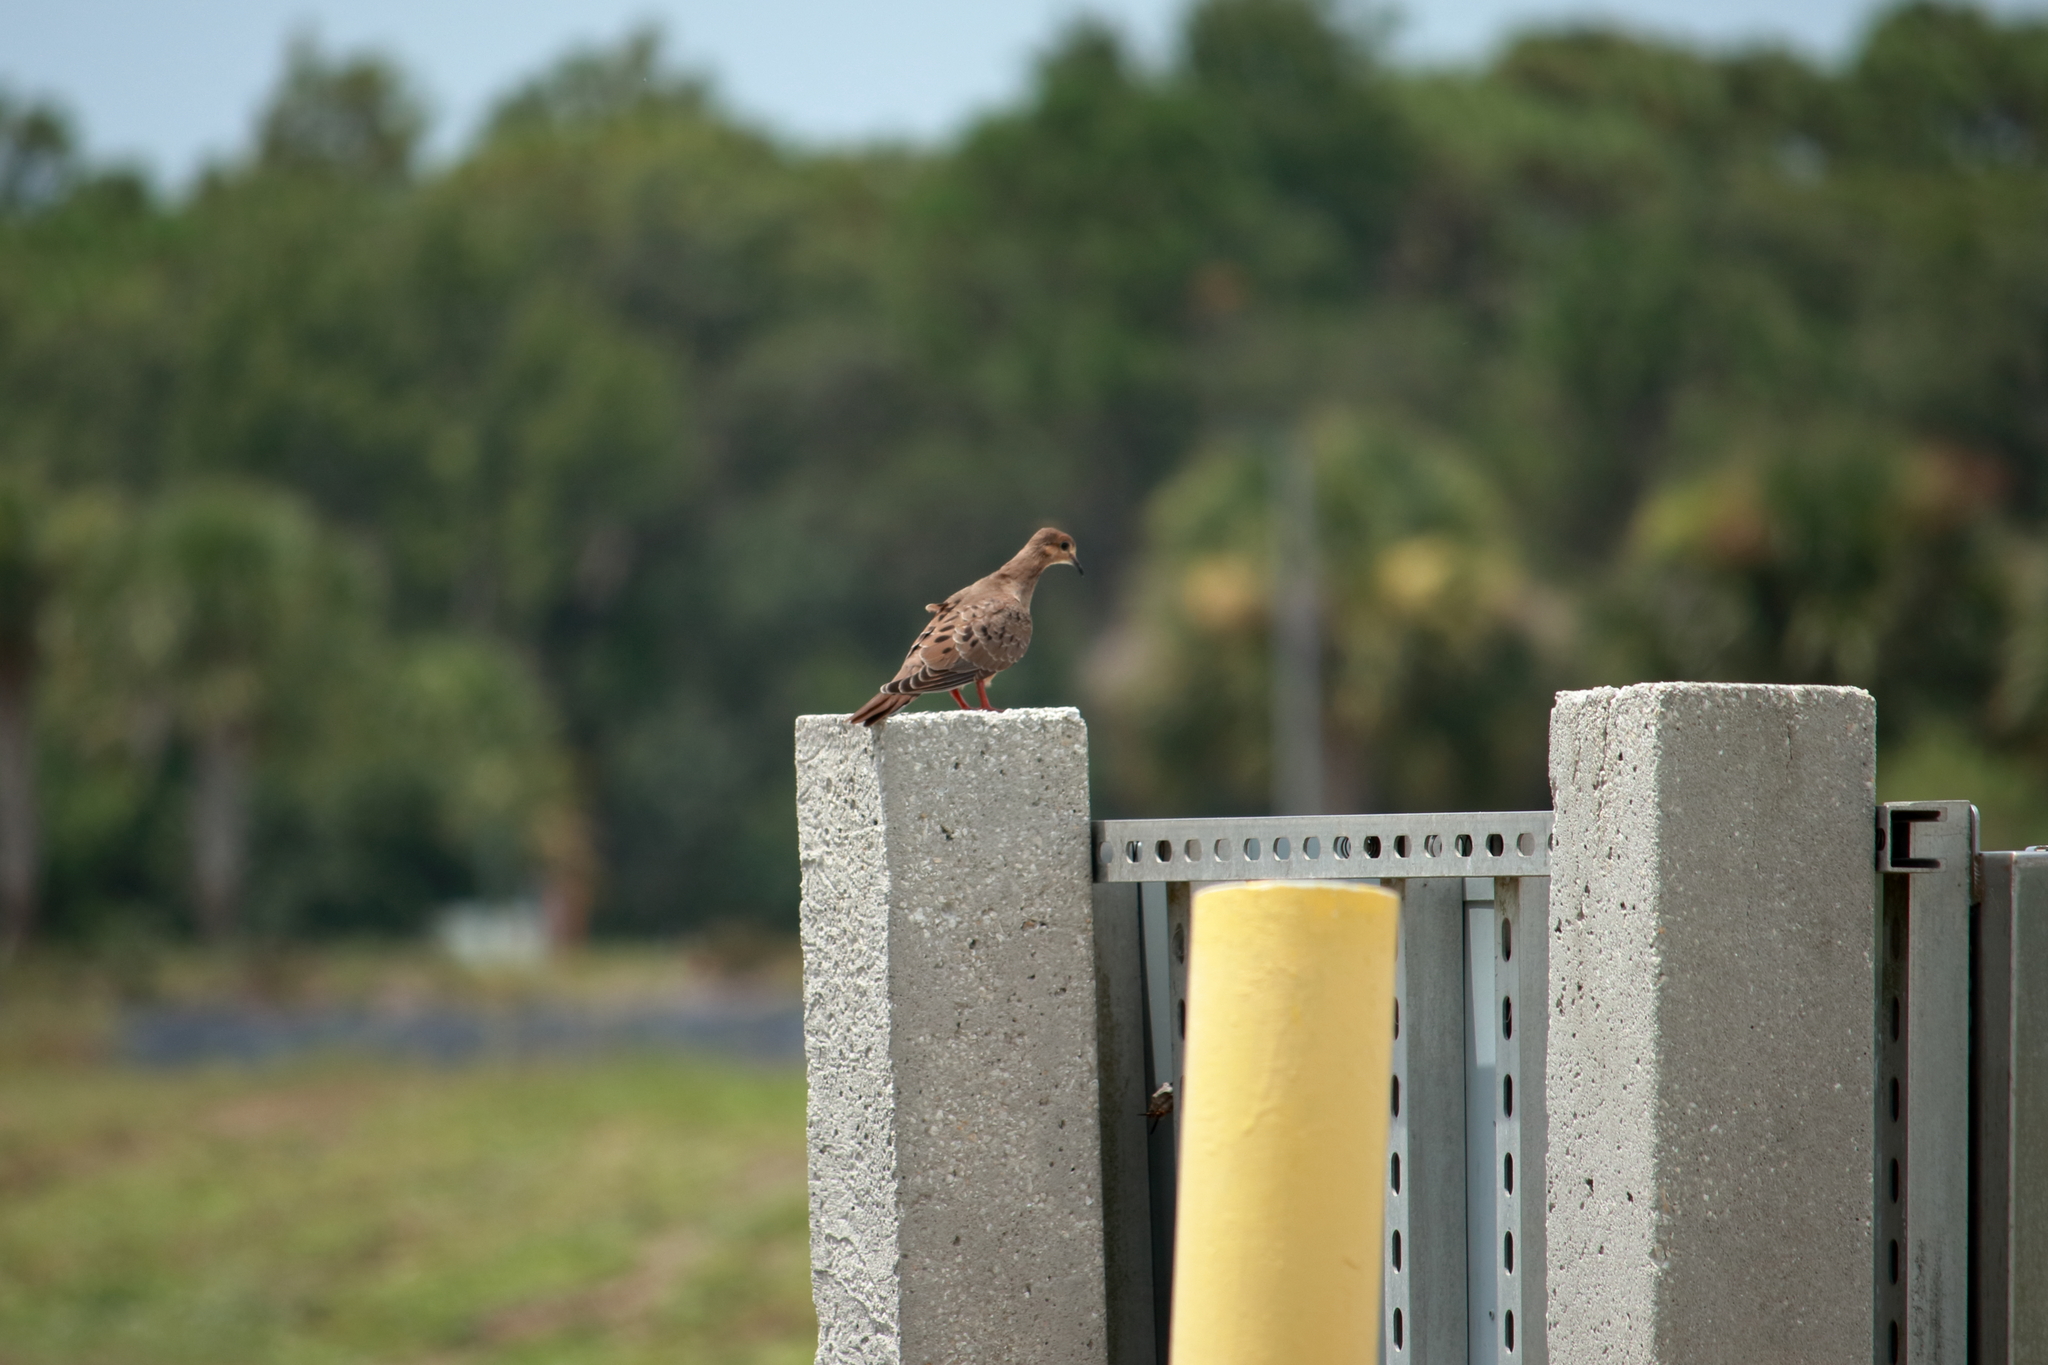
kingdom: Animalia
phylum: Chordata
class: Aves
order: Columbiformes
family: Columbidae
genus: Zenaida
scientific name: Zenaida macroura
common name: Mourning dove
